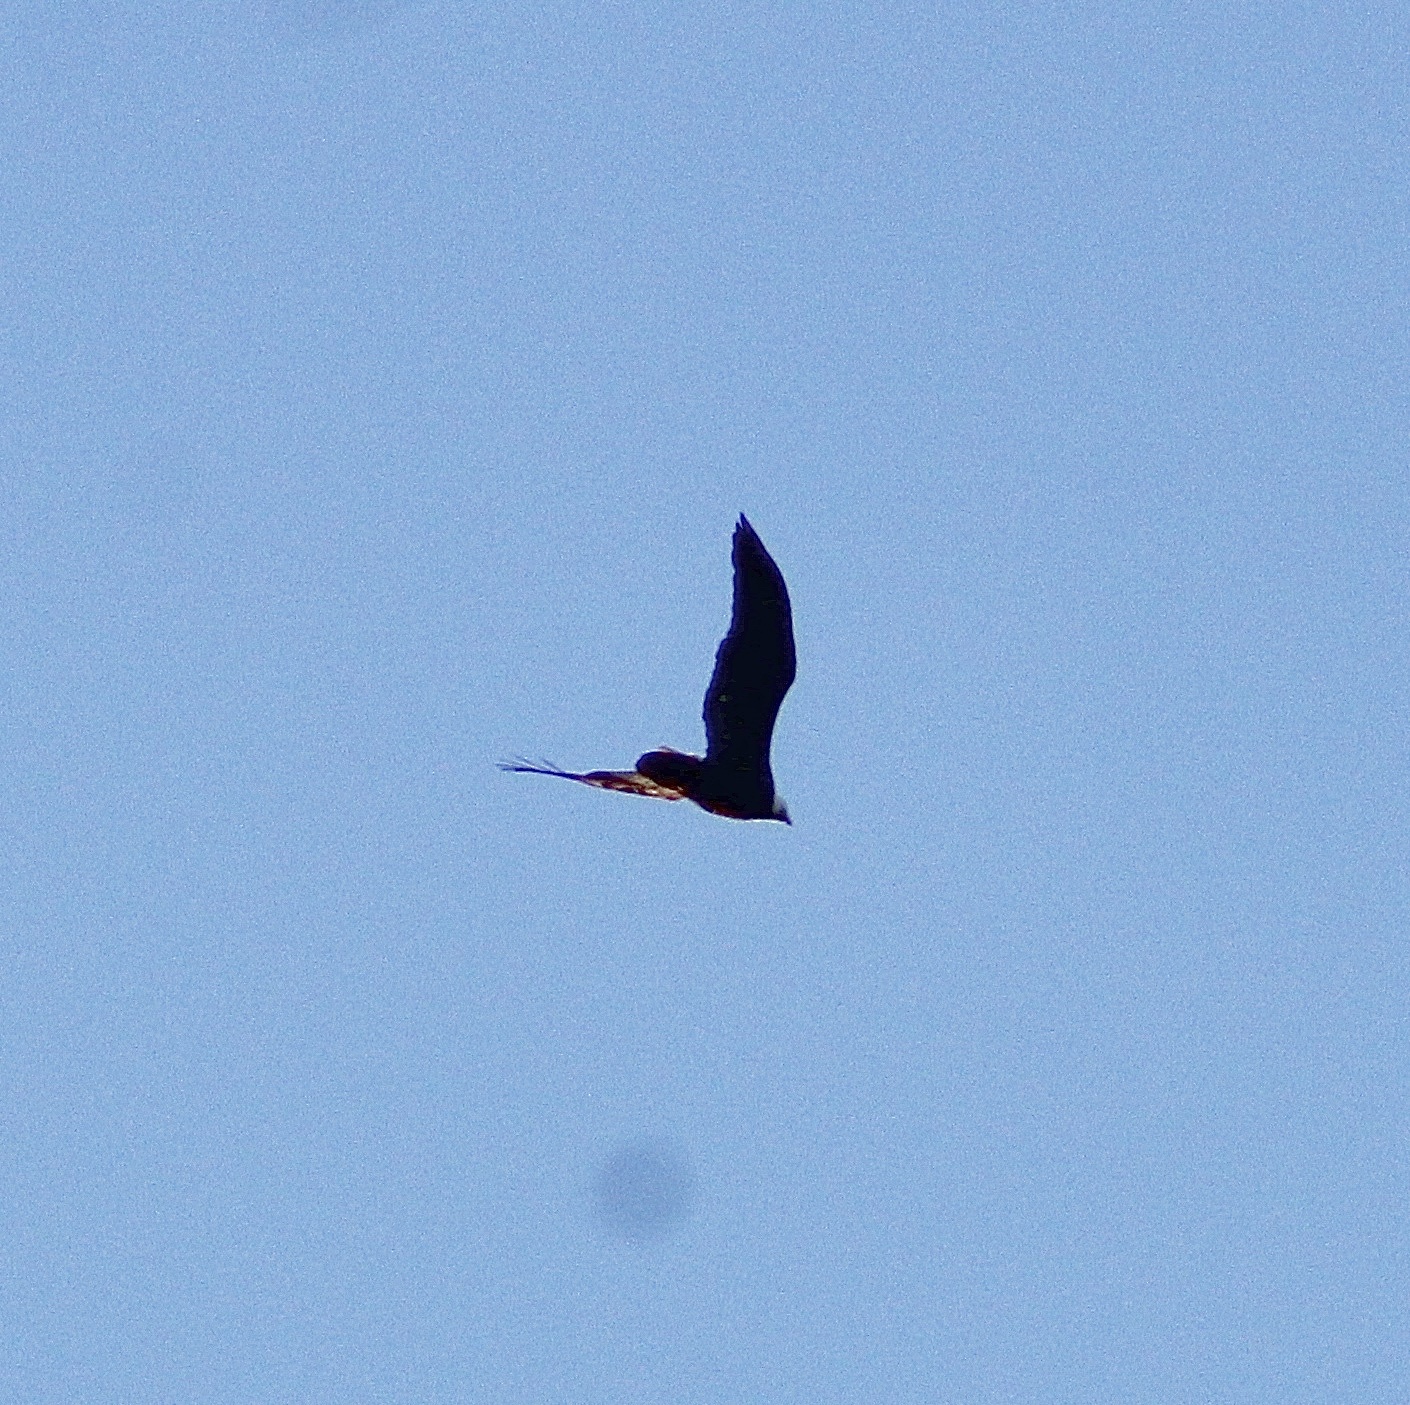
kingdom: Animalia
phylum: Chordata
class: Aves
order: Accipitriformes
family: Accipitridae
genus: Haliaeetus
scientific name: Haliaeetus leucocephalus
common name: Bald eagle
